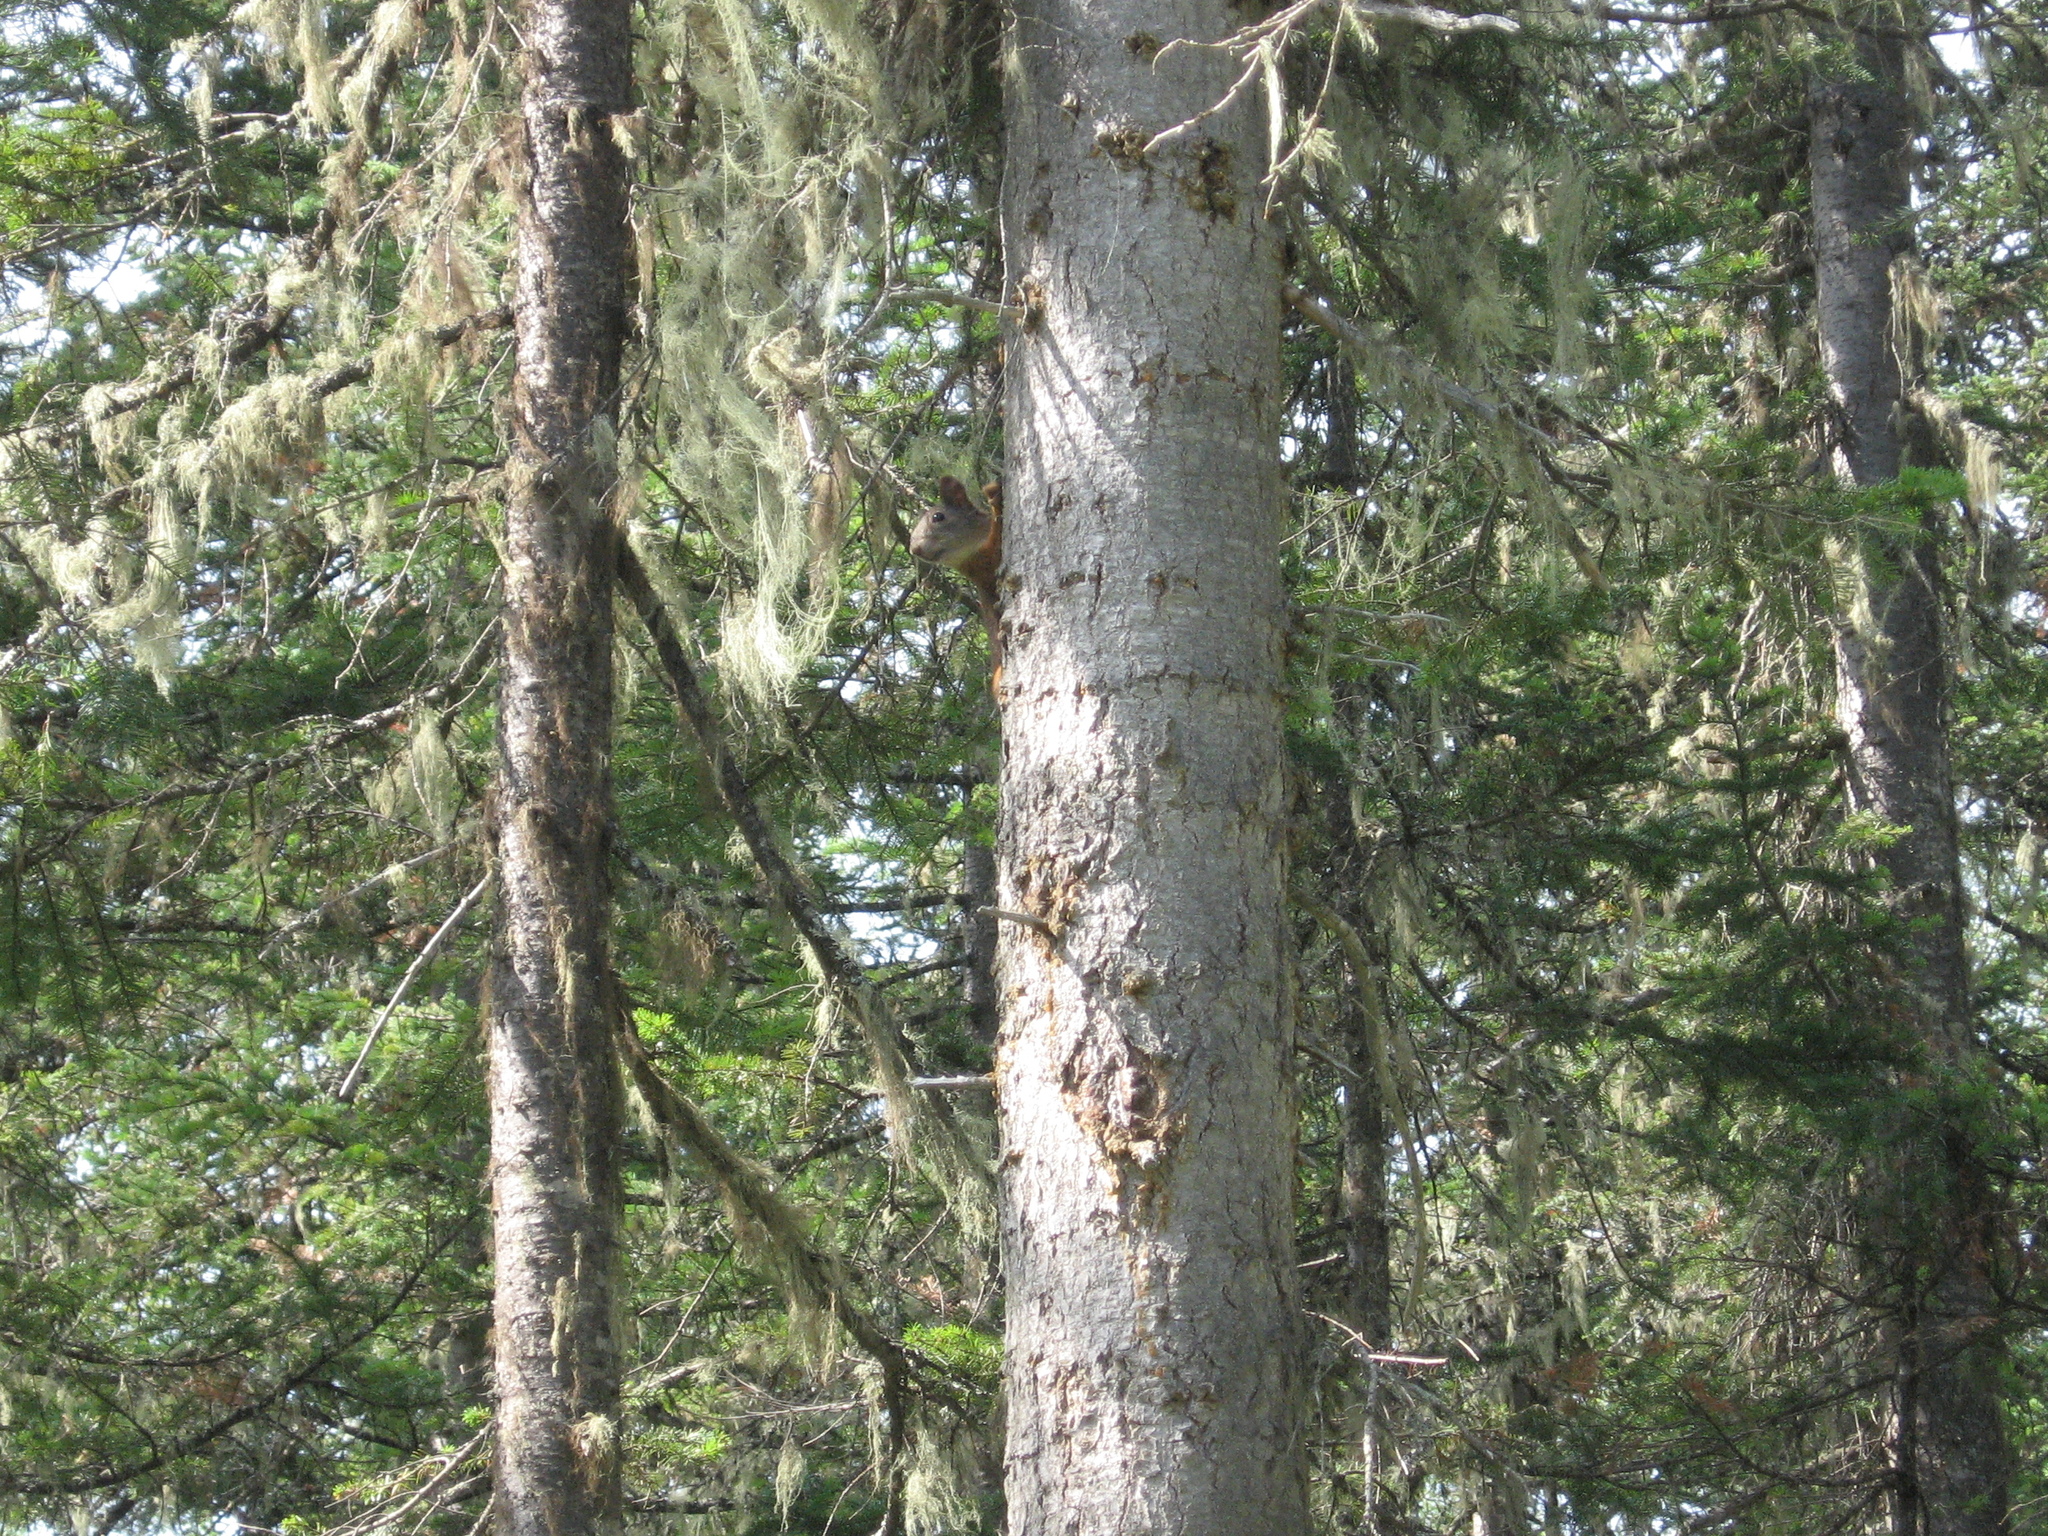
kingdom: Animalia
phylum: Chordata
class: Mammalia
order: Rodentia
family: Sciuridae
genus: Sciurus
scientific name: Sciurus vulgaris
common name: Eurasian red squirrel
